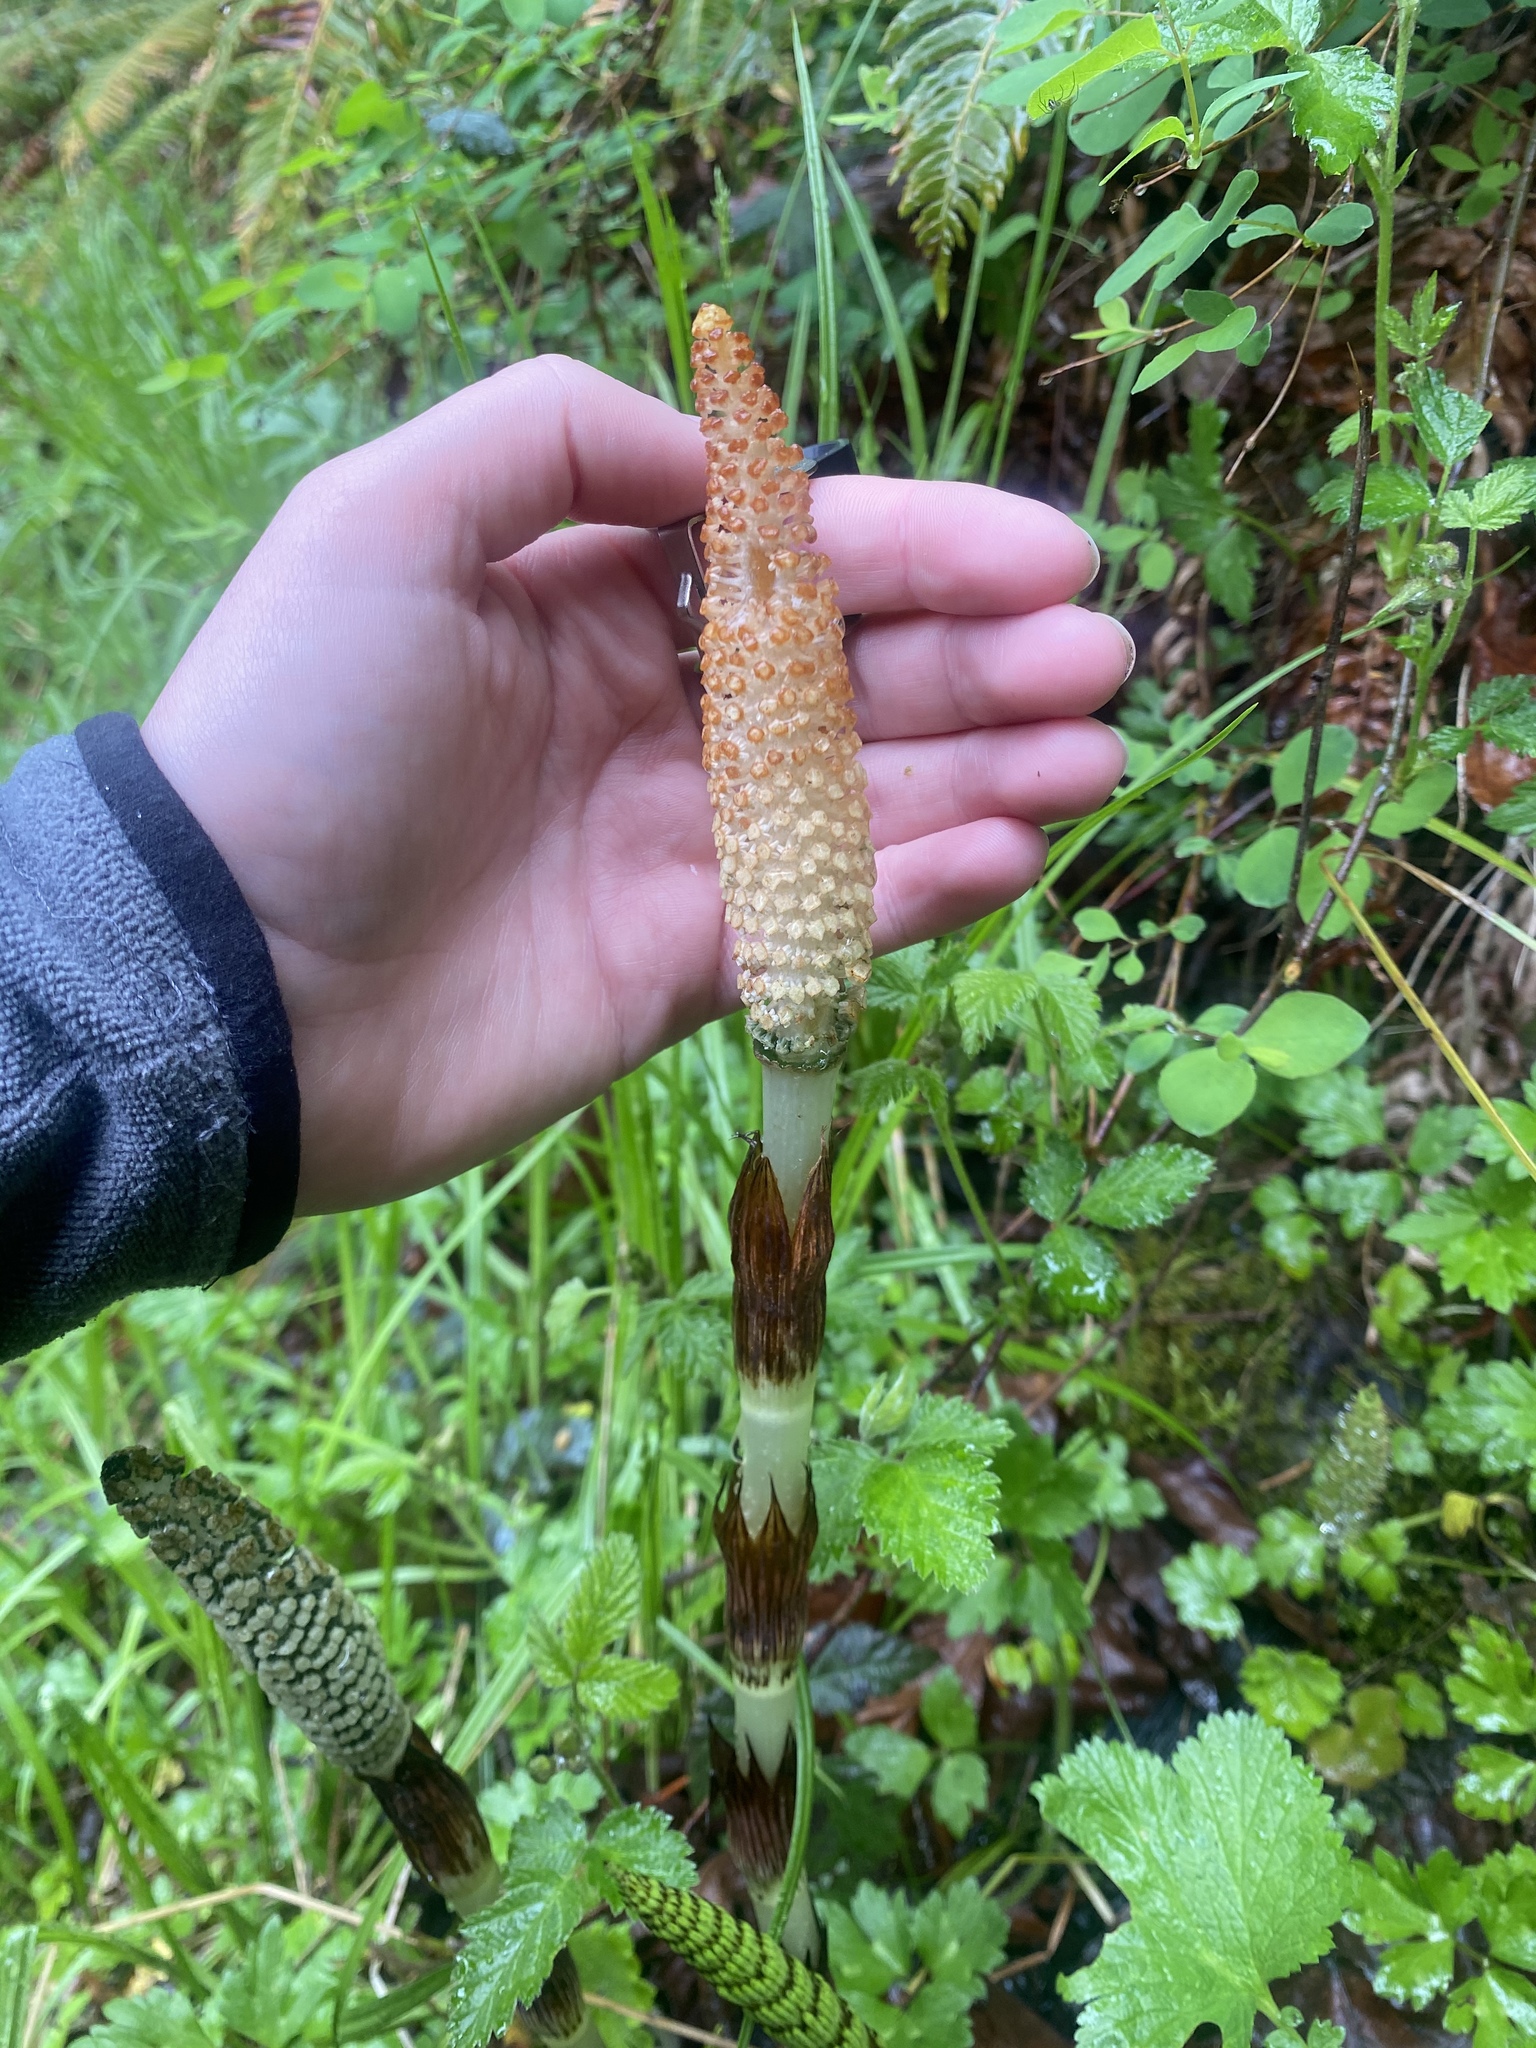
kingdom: Plantae
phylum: Tracheophyta
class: Polypodiopsida
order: Equisetales
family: Equisetaceae
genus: Equisetum
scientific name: Equisetum telmateia
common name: Great horsetail
